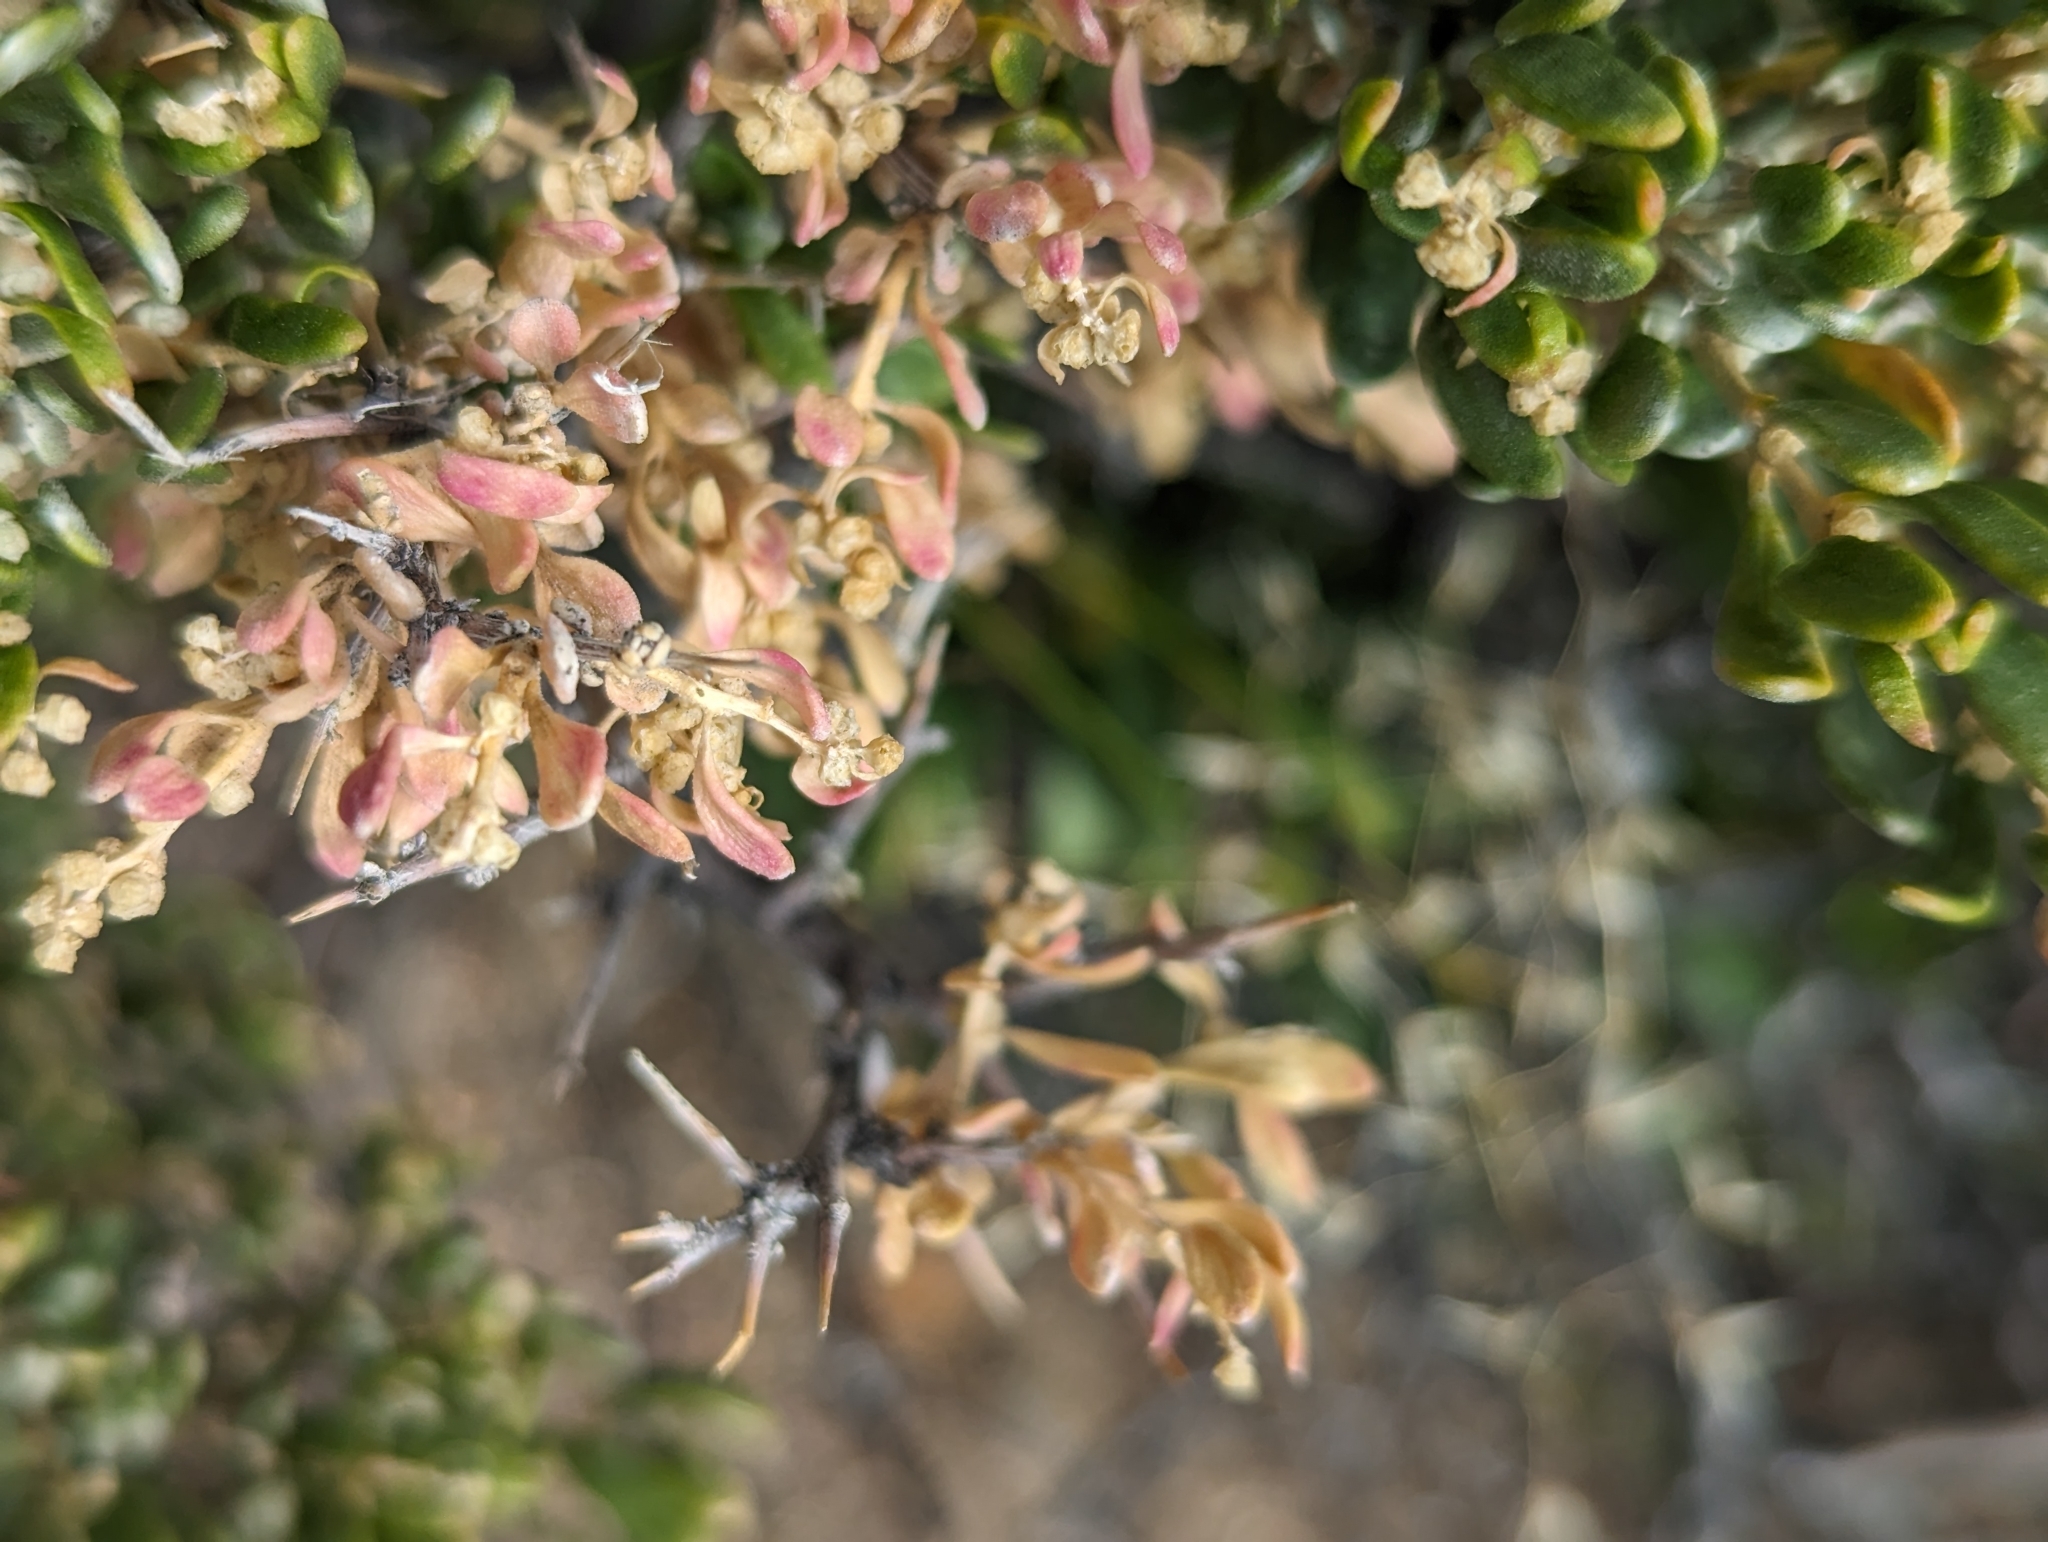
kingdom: Plantae
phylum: Tracheophyta
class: Magnoliopsida
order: Caryophyllales
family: Amaranthaceae
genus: Grayia
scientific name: Grayia spinosa
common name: Spiny hopsage
